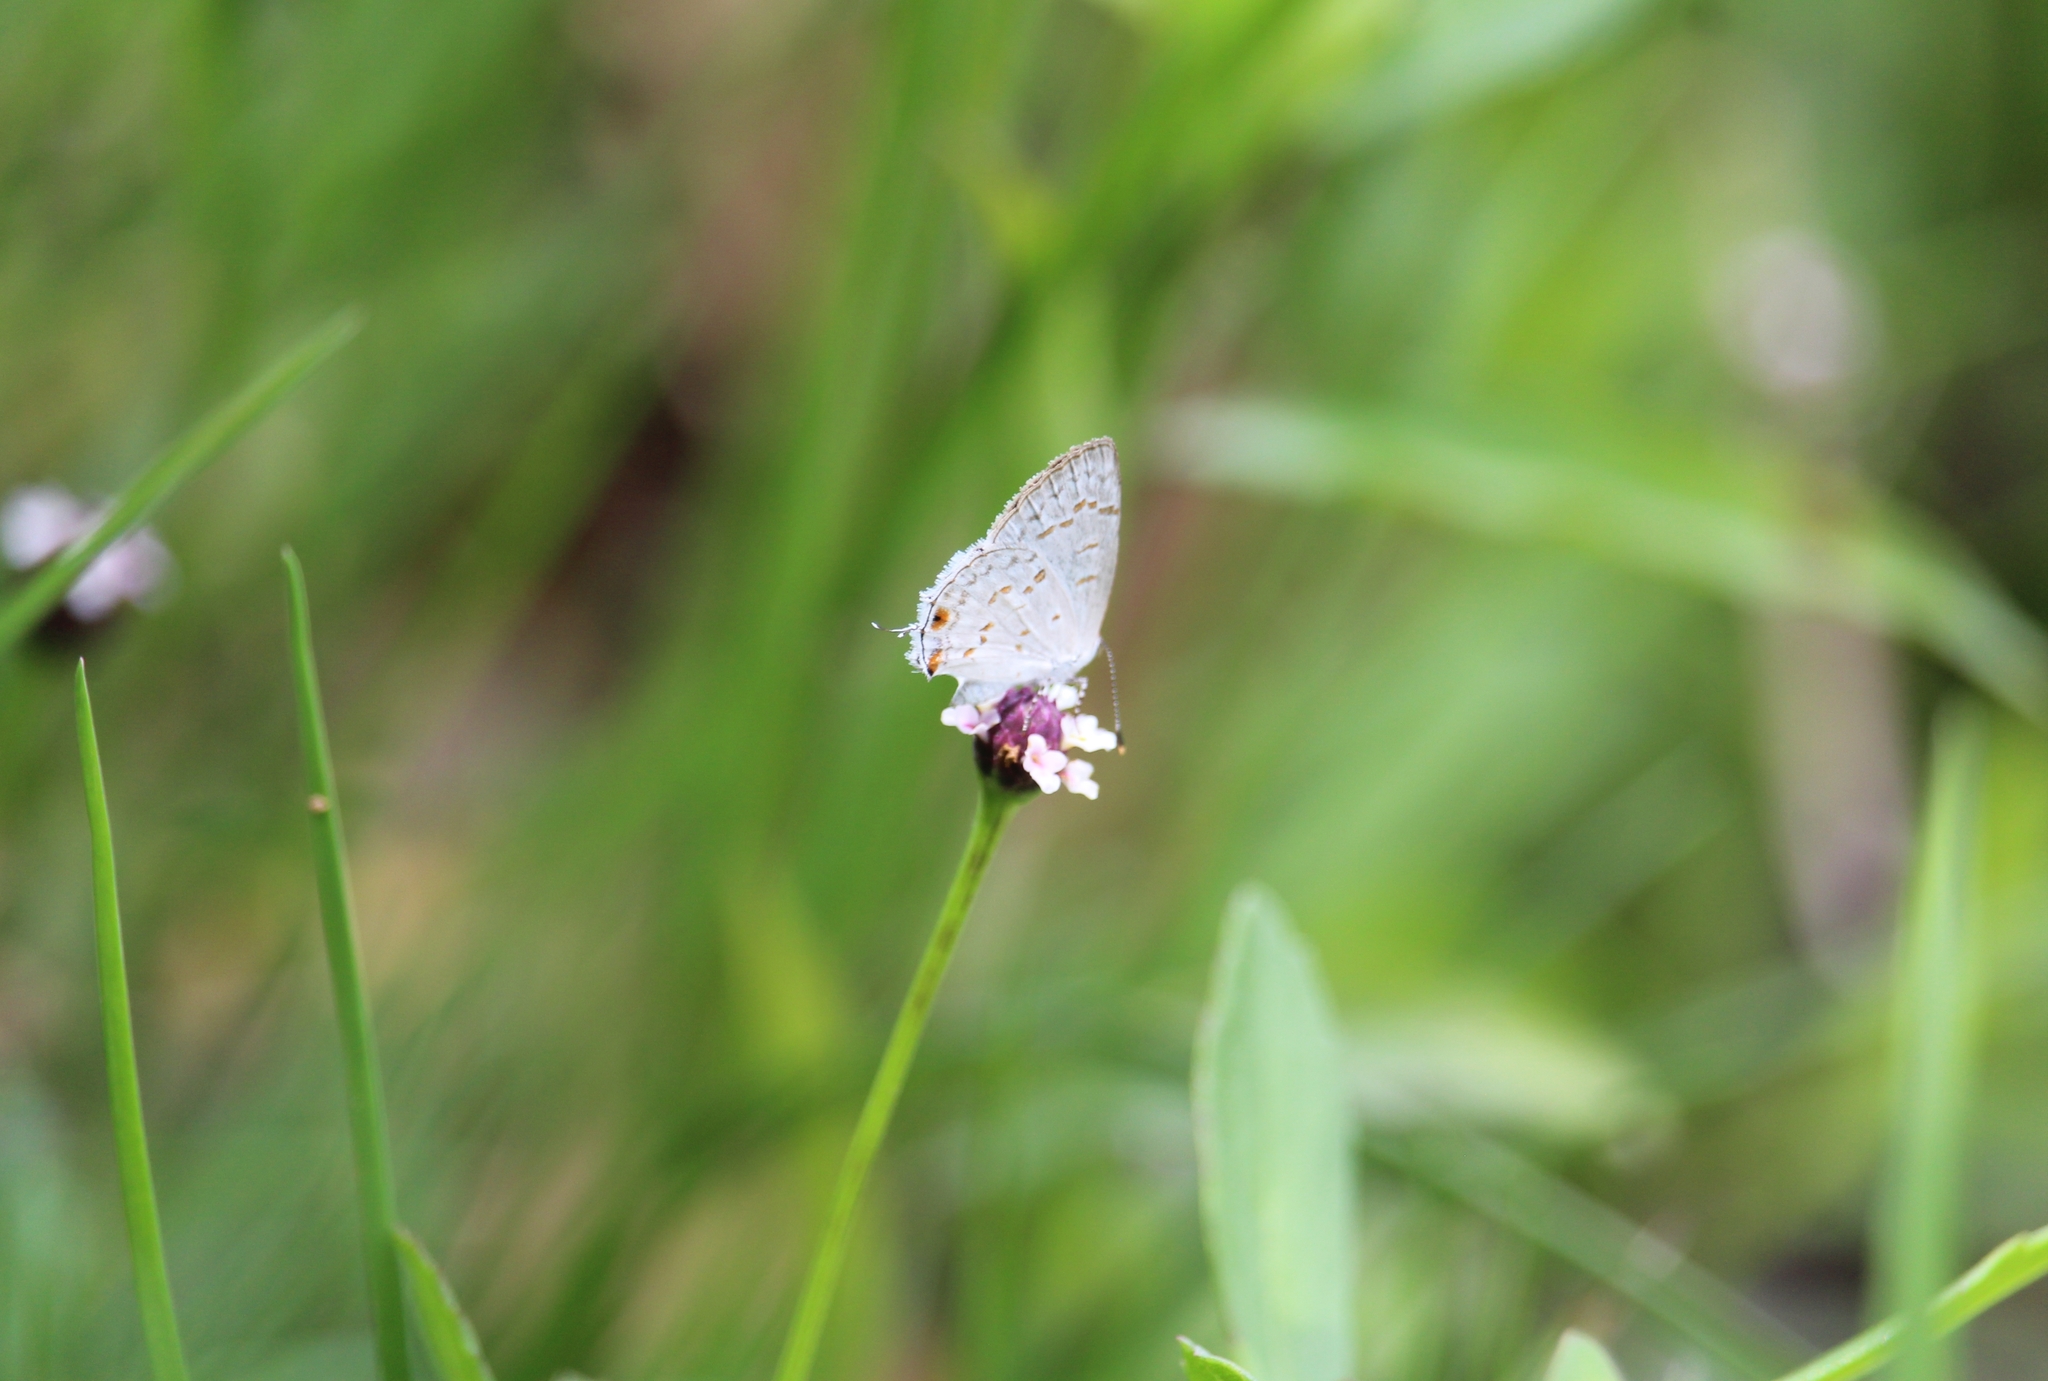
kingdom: Animalia
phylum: Arthropoda
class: Insecta
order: Lepidoptera
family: Lycaenidae
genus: Thecla
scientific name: Thecla una
